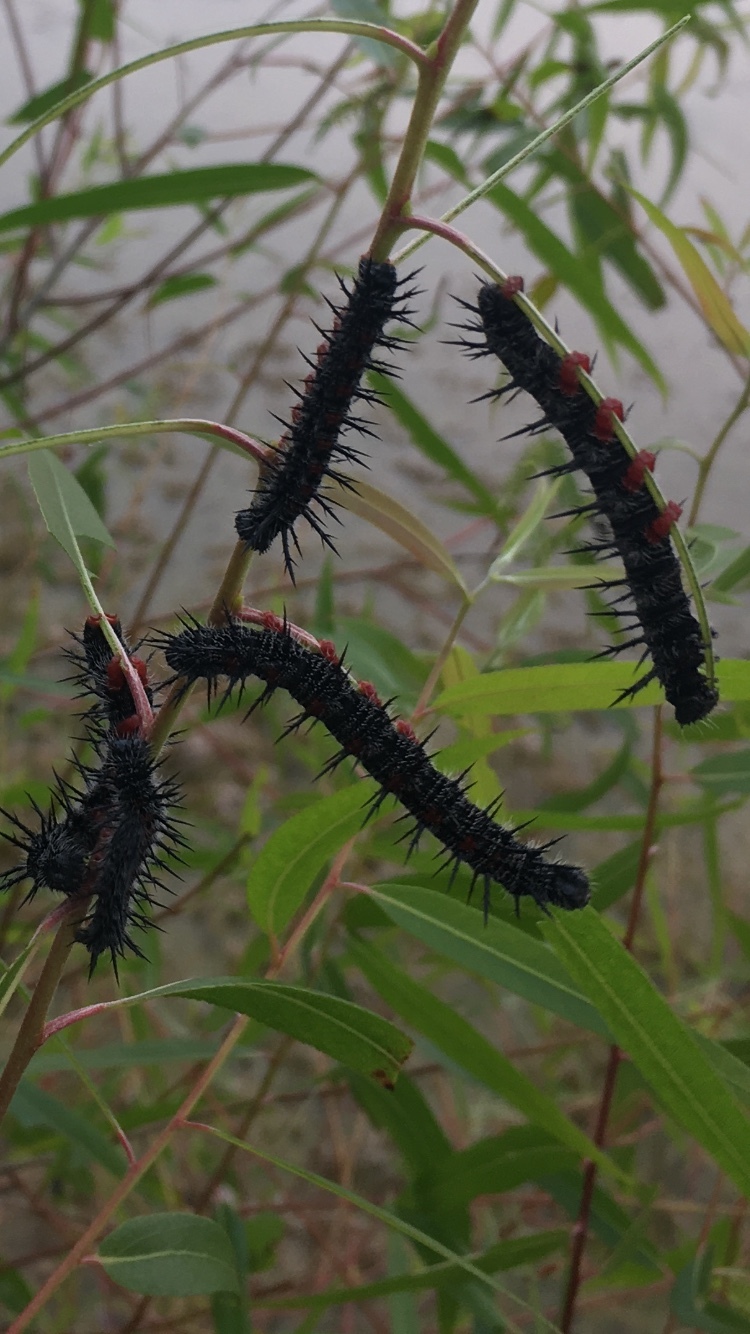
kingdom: Animalia
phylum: Arthropoda
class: Insecta
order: Lepidoptera
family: Nymphalidae
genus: Nymphalis
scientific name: Nymphalis antiopa
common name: Camberwell beauty
